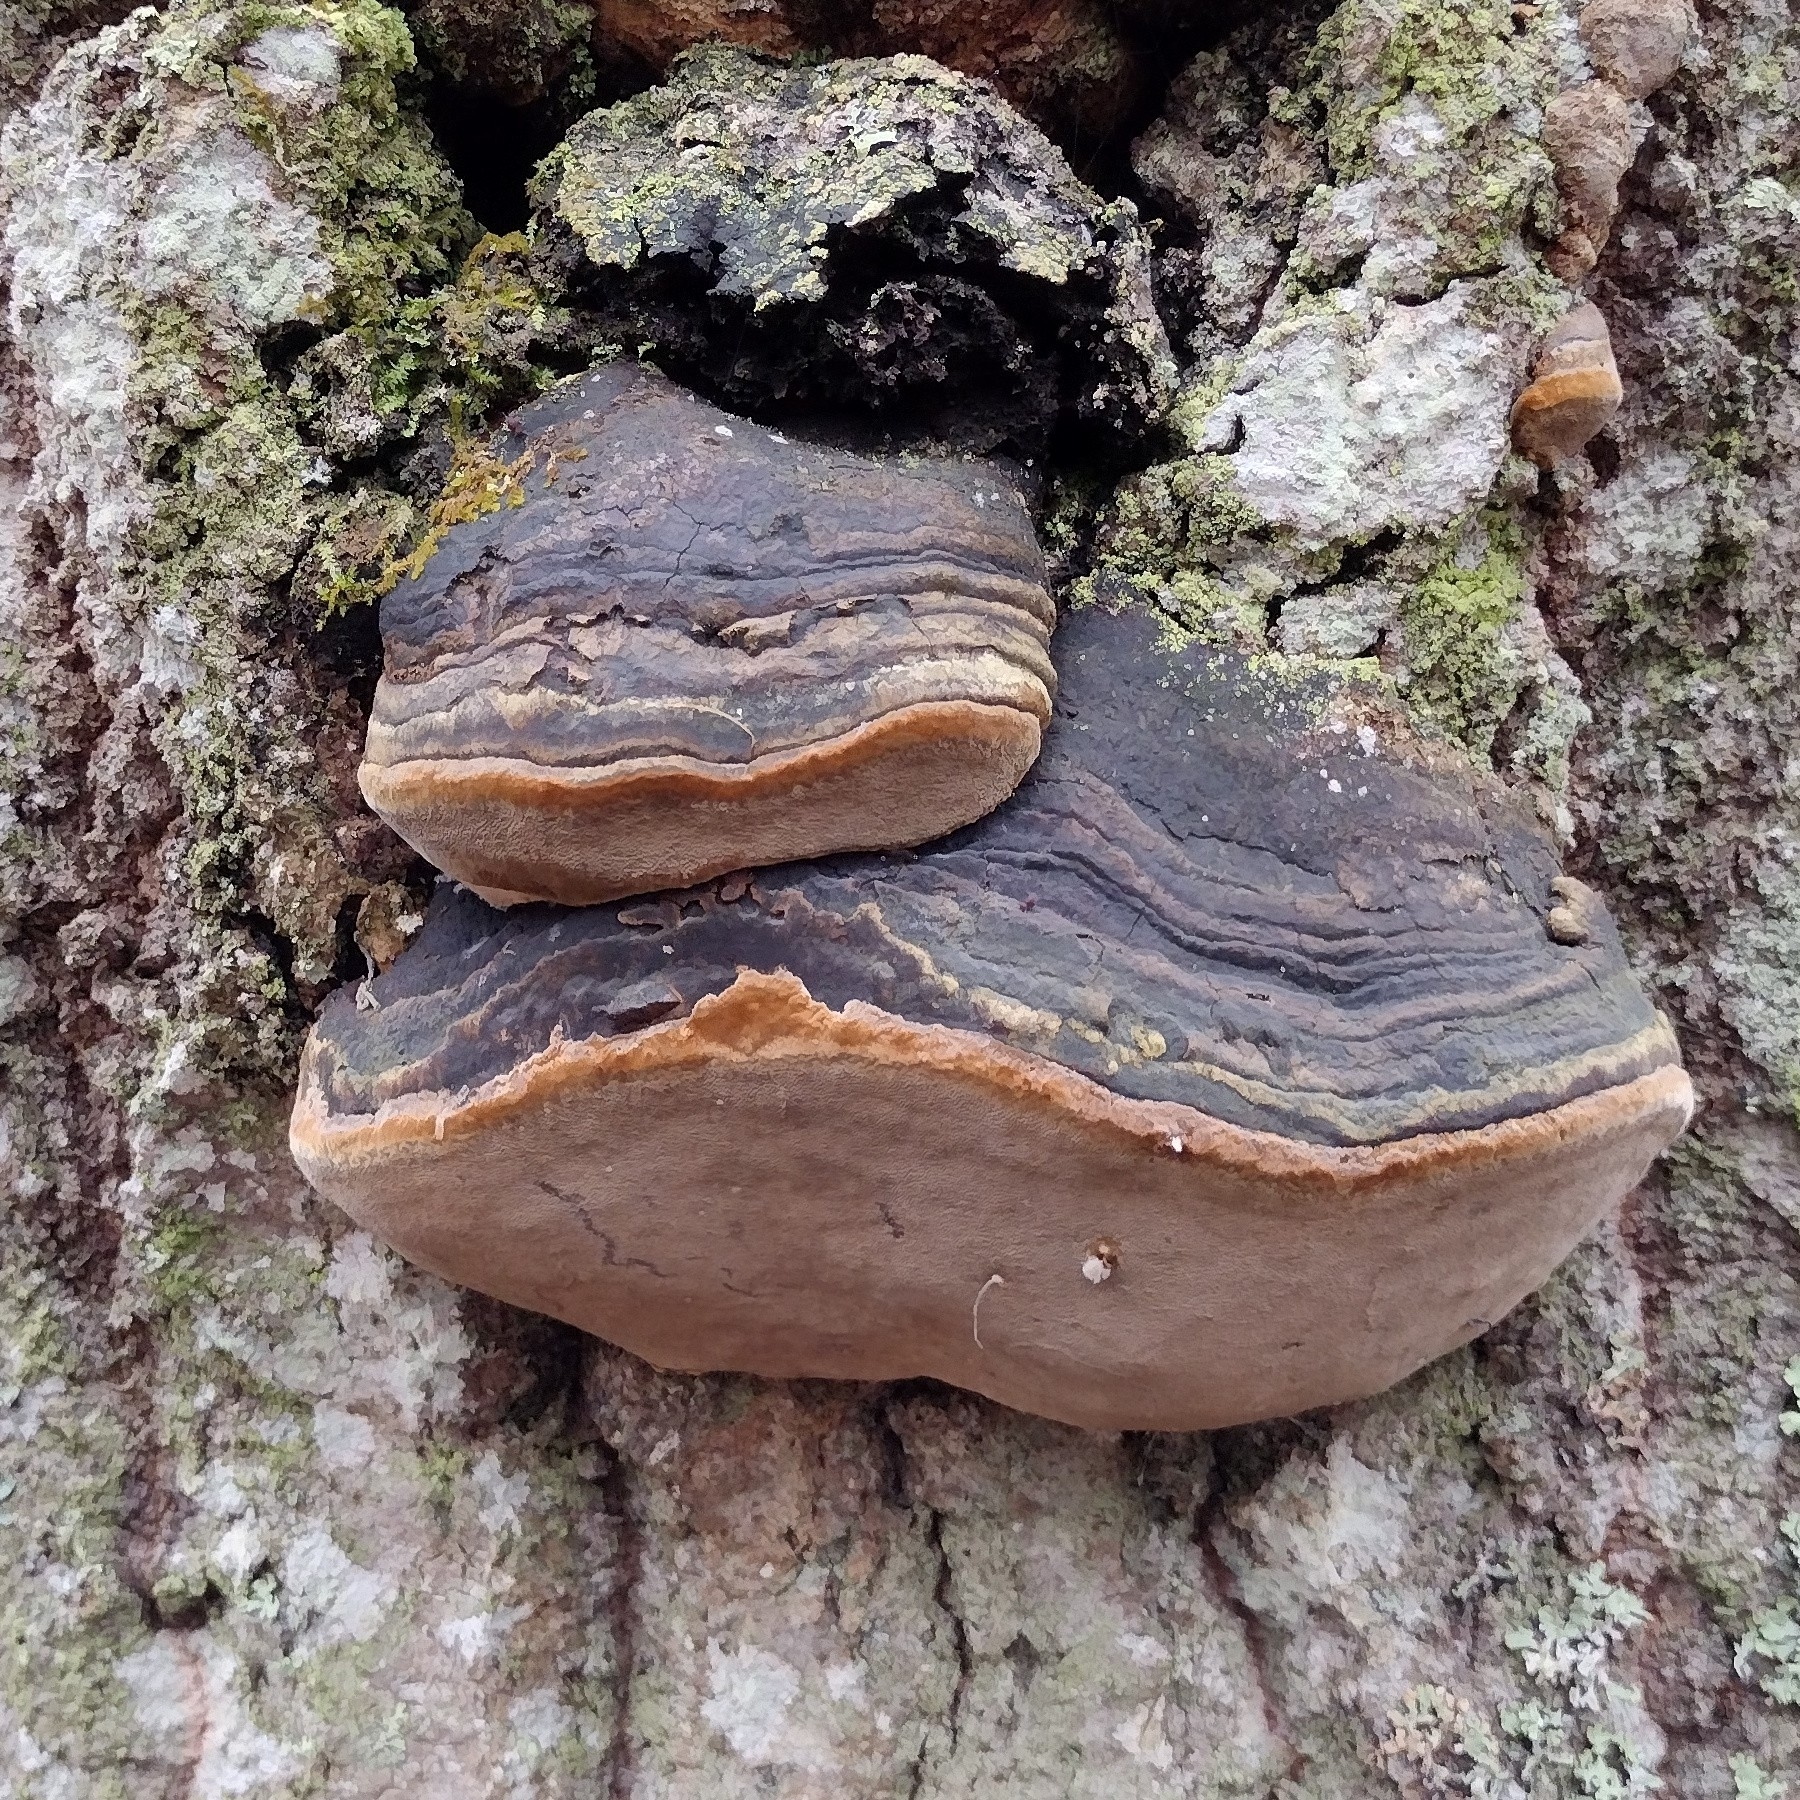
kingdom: Fungi
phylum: Basidiomycota
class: Agaricomycetes
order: Hymenochaetales
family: Hymenochaetaceae
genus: Phellinus
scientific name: Phellinus tremulae
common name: Aspen bracket
